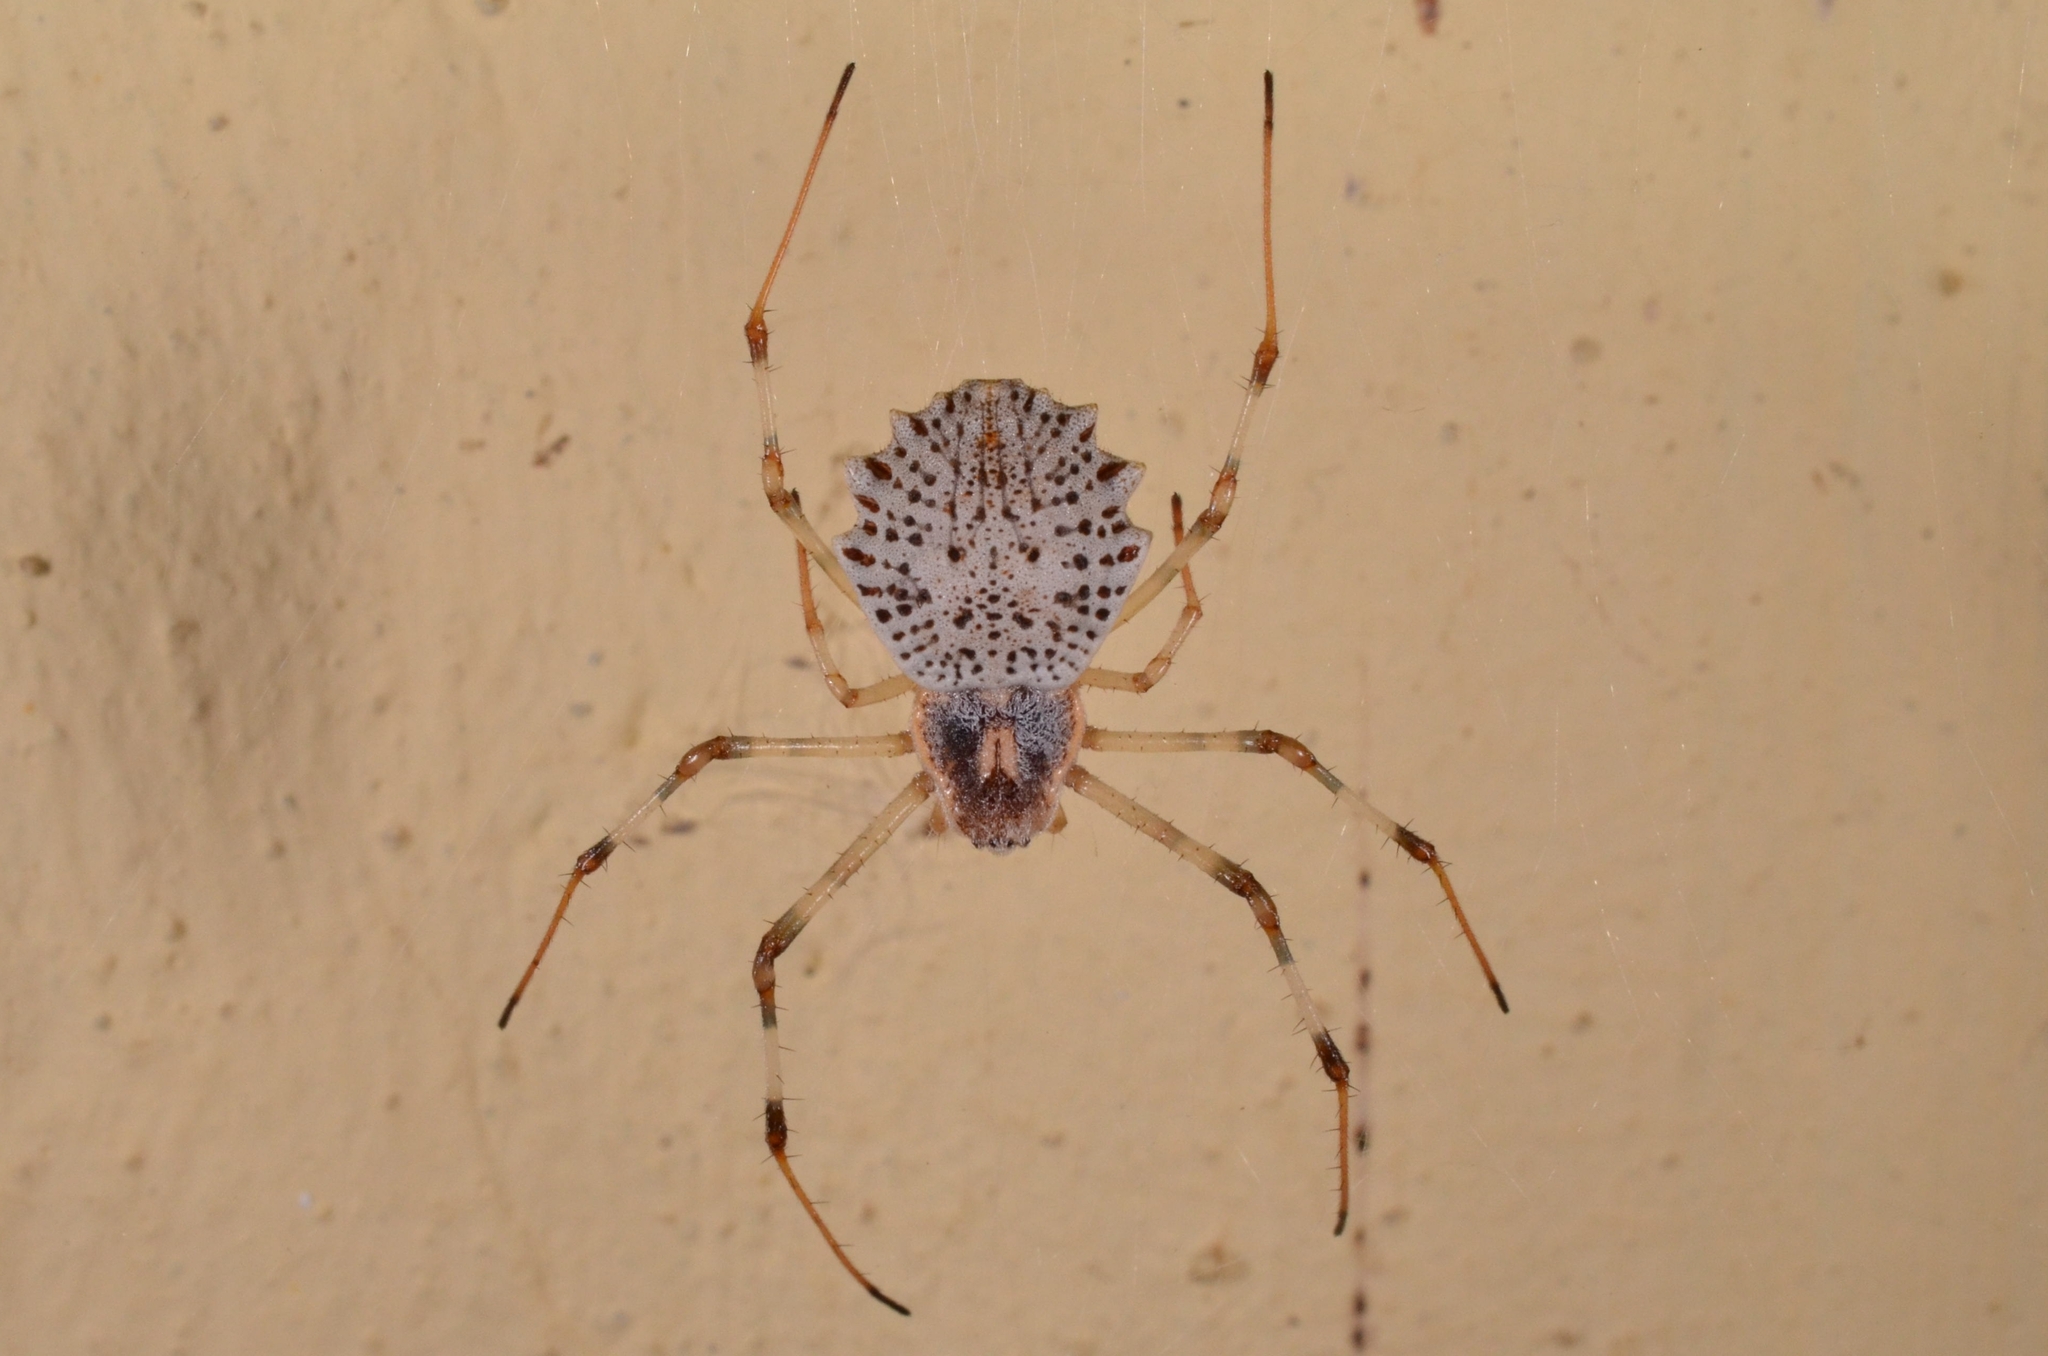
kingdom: Animalia
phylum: Arthropoda
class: Arachnida
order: Araneae
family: Araneidae
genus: Herennia
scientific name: Herennia multipuncta
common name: Spotted coin spider
